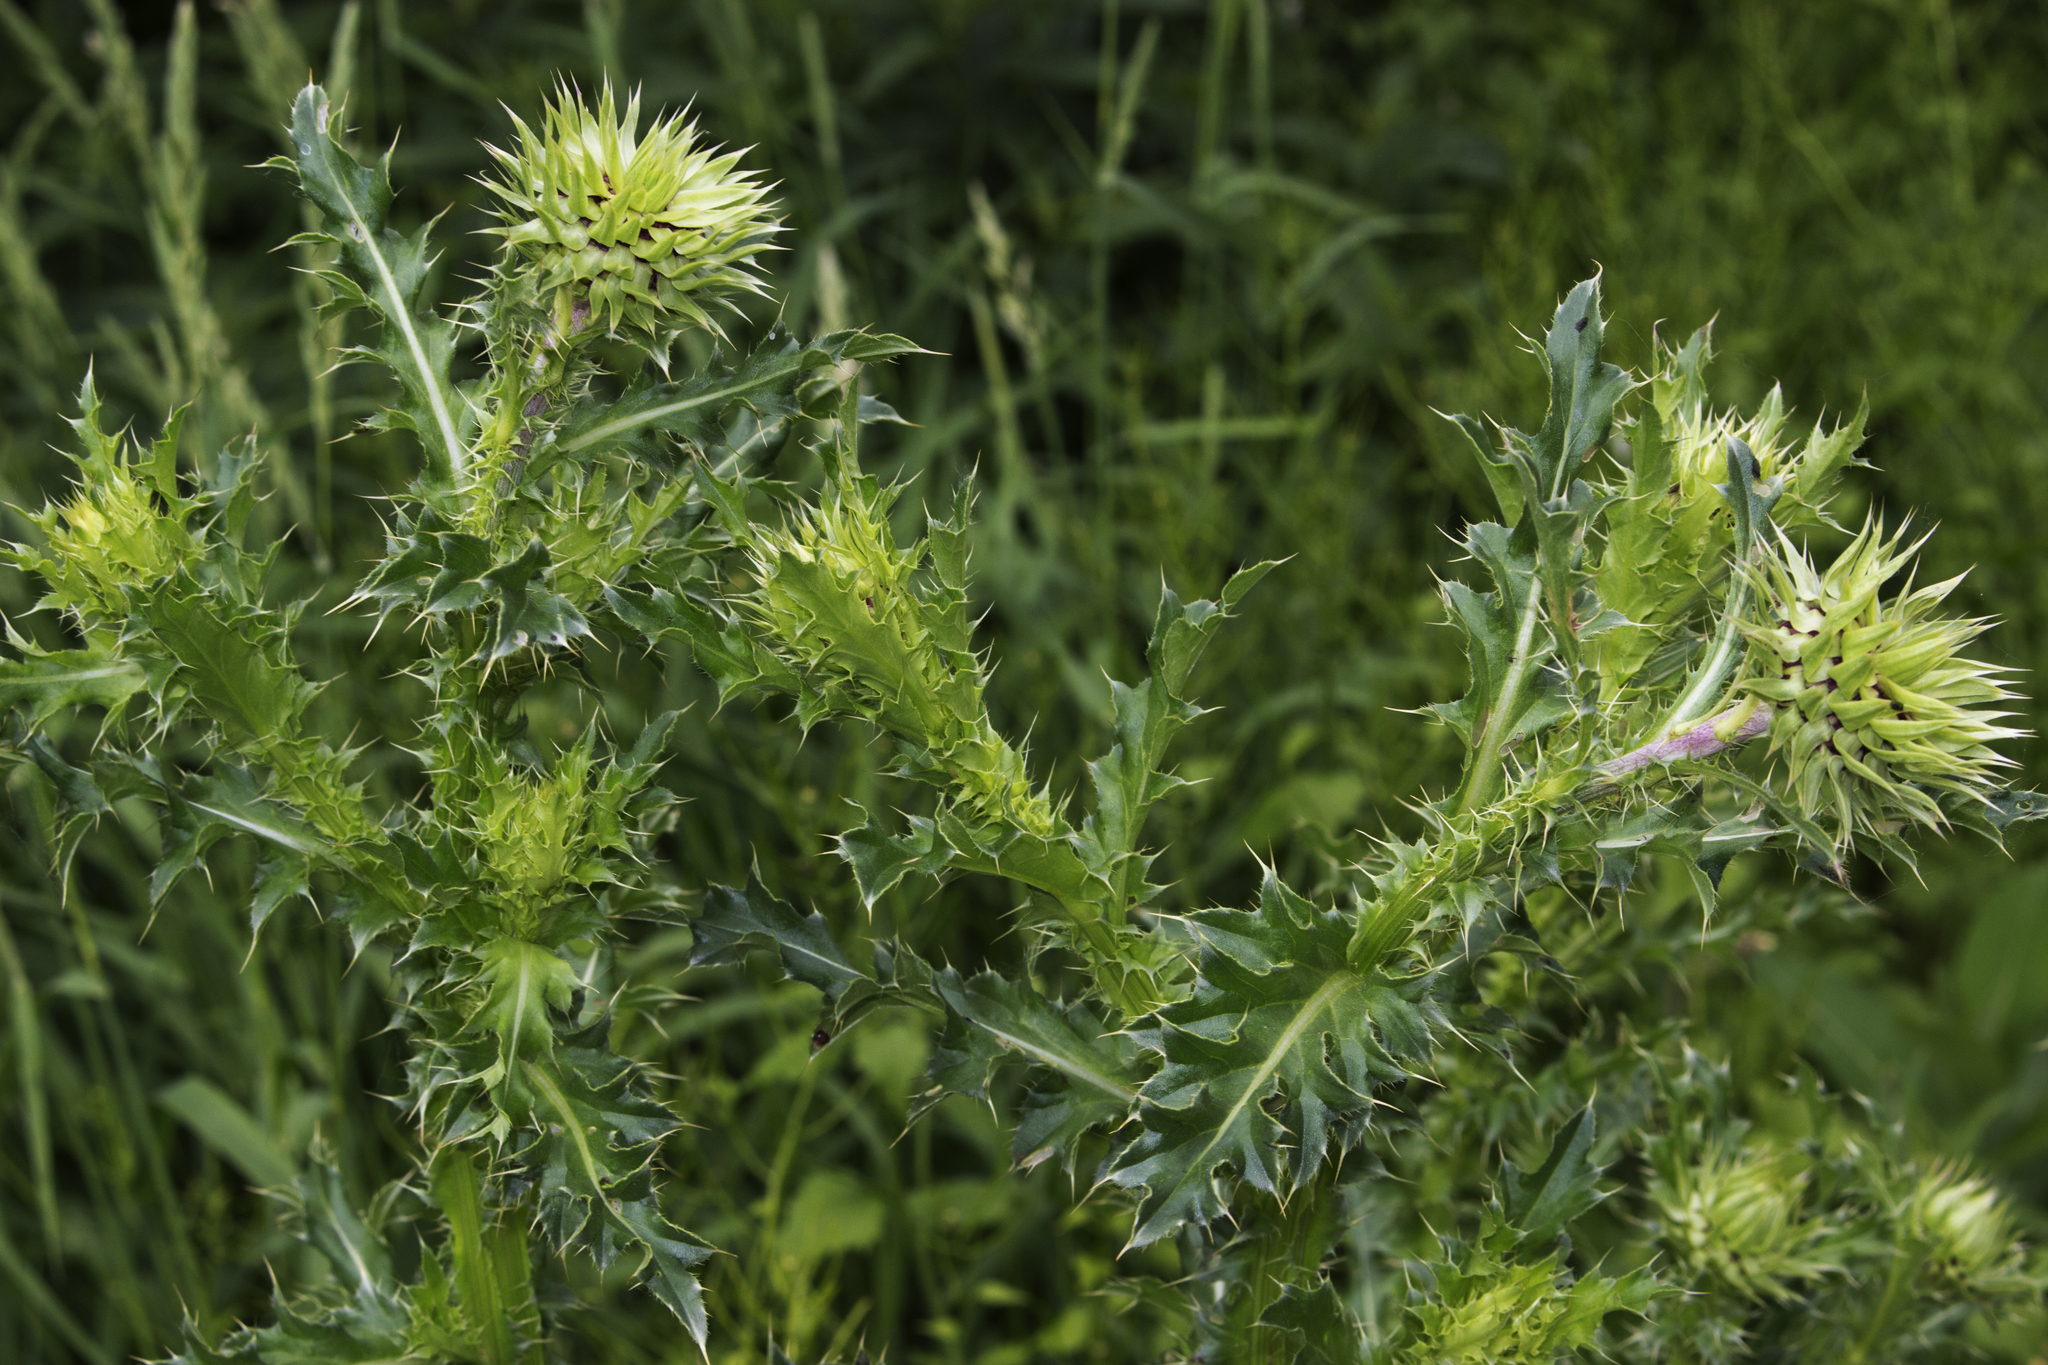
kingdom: Plantae
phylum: Tracheophyta
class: Magnoliopsida
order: Asterales
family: Asteraceae
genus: Carduus
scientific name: Carduus nutans
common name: Musk thistle
